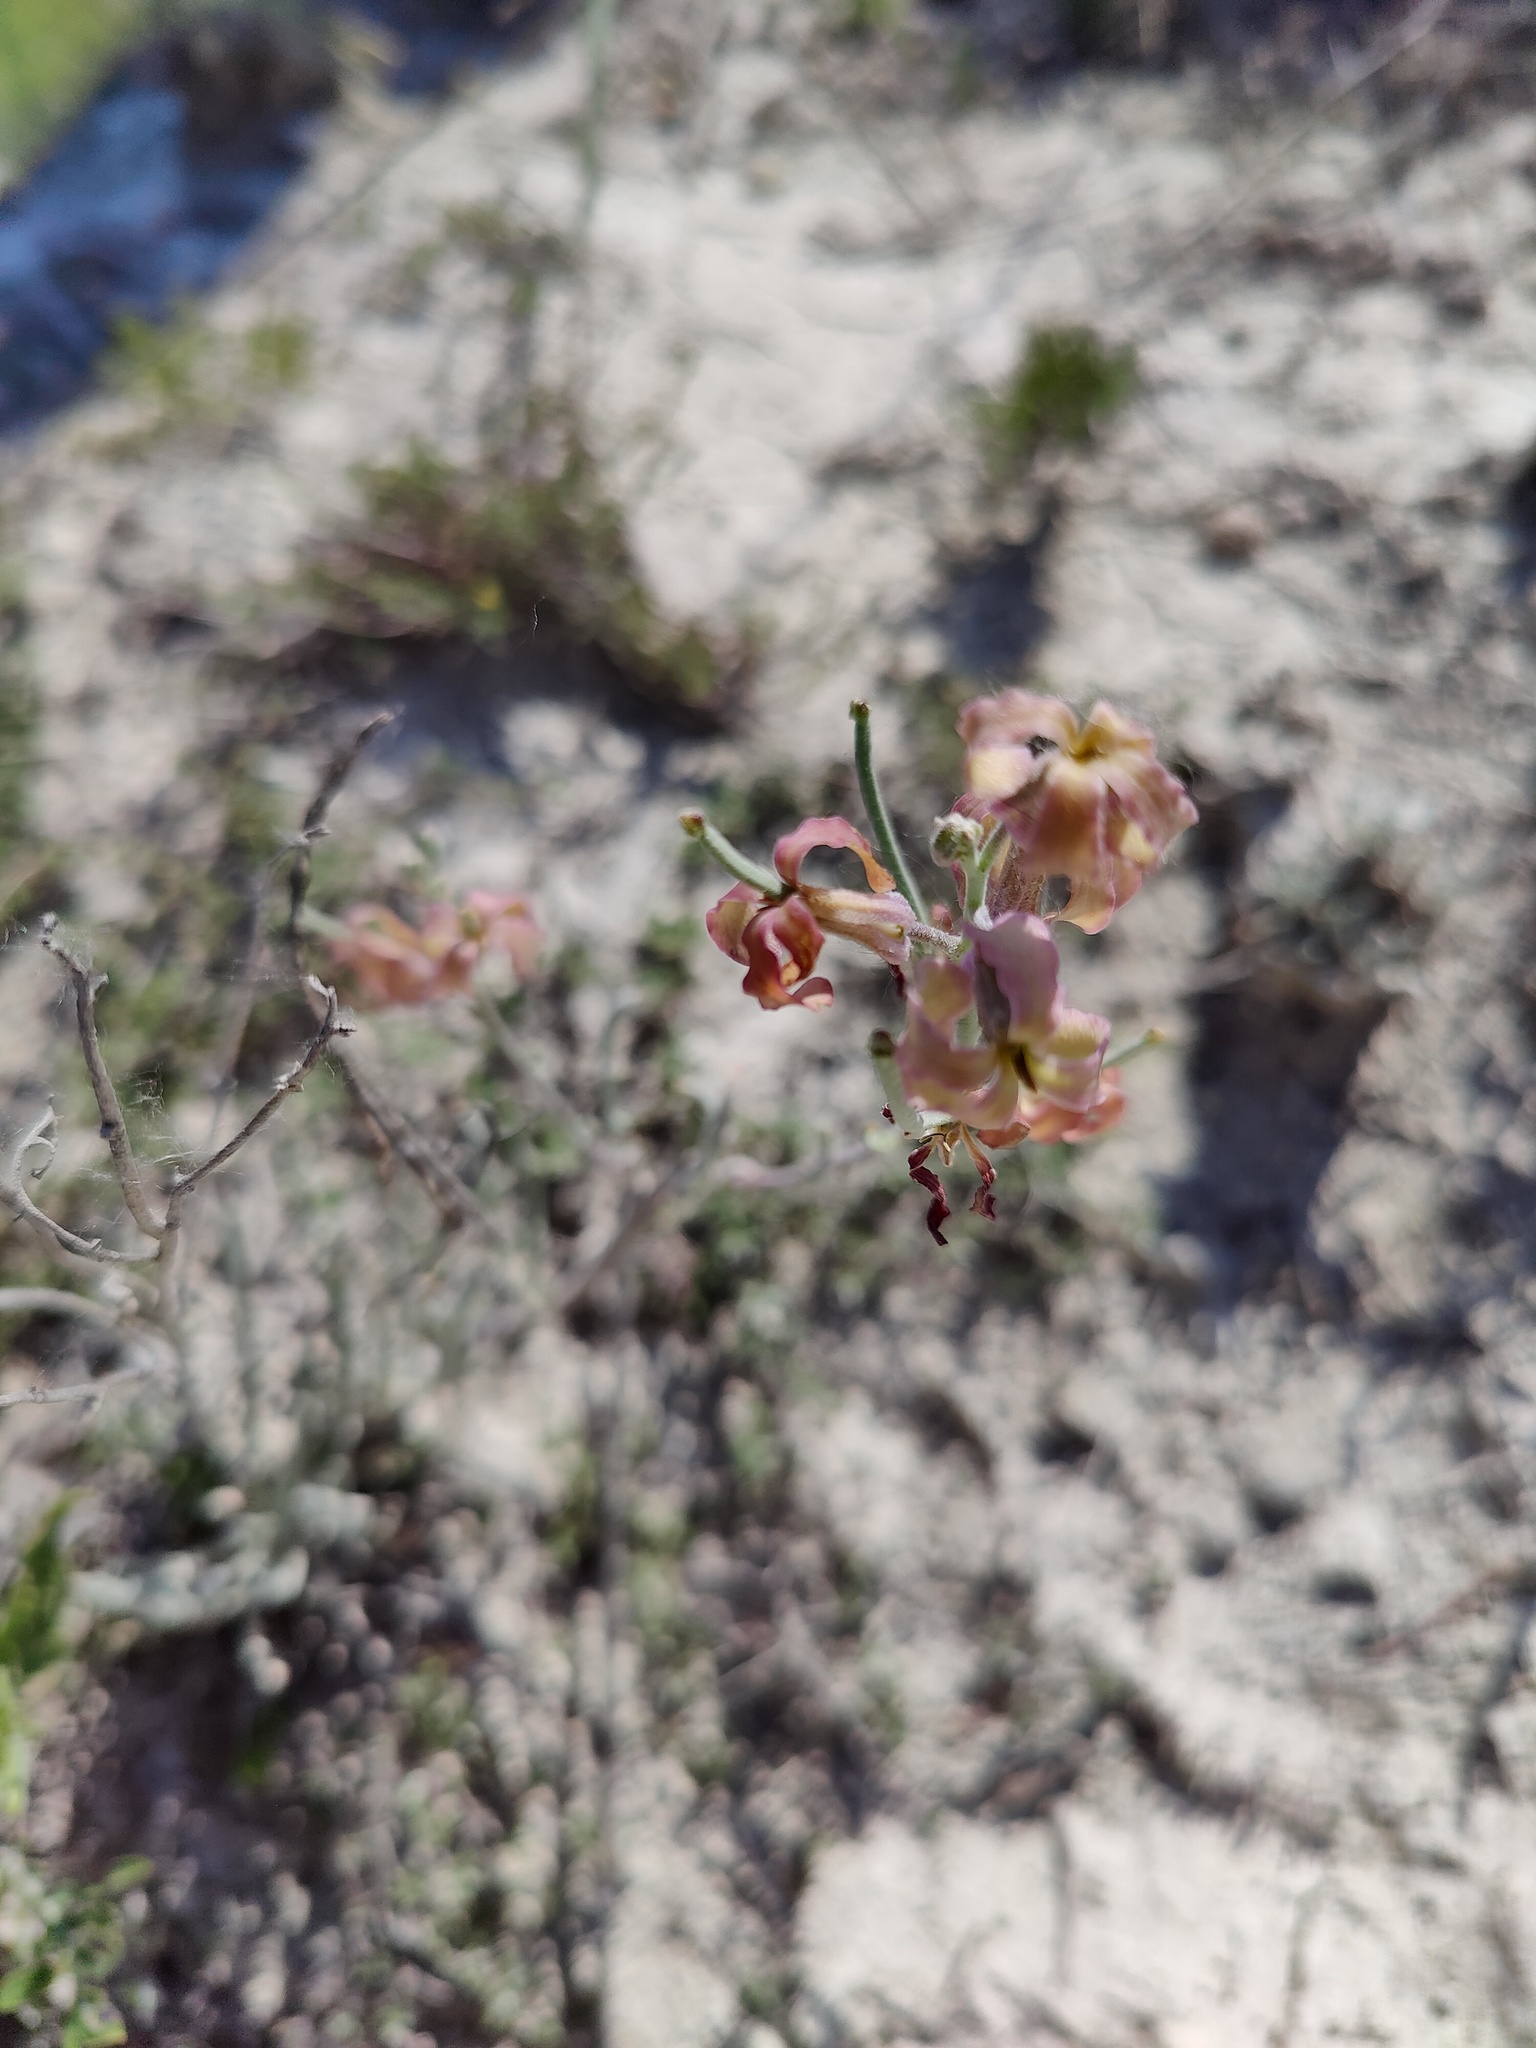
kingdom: Plantae
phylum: Tracheophyta
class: Magnoliopsida
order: Brassicales
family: Brassicaceae
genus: Matthiola
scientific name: Matthiola fragrans
